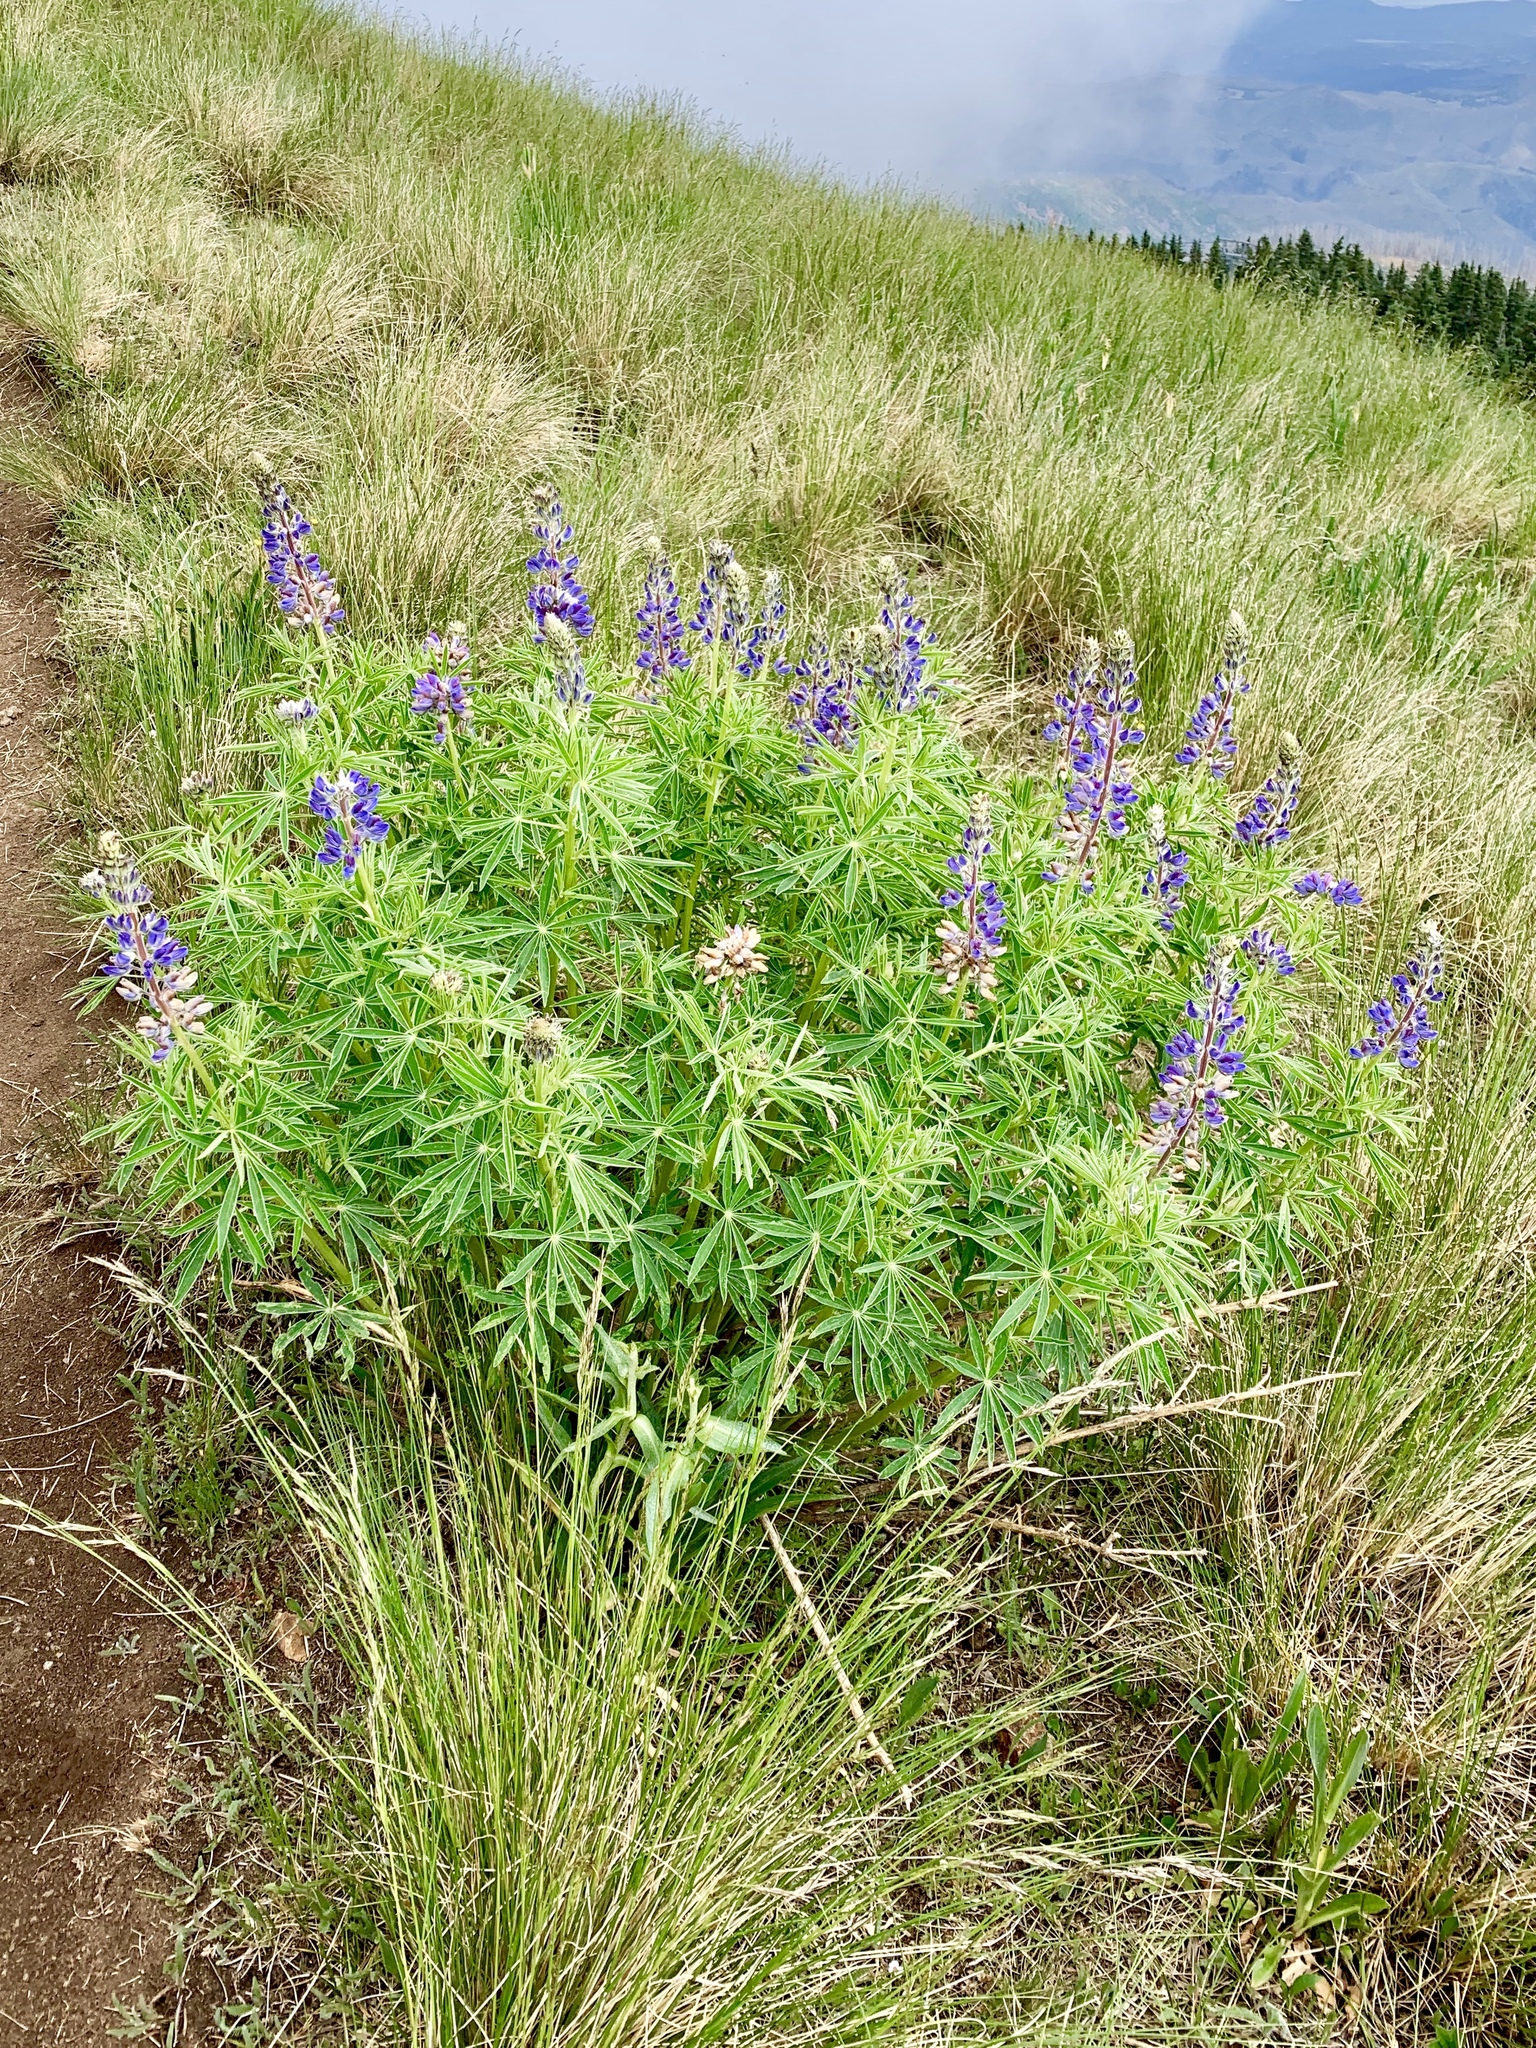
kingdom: Plantae
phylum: Tracheophyta
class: Magnoliopsida
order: Fabales
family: Fabaceae
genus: Lupinus
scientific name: Lupinus sierrae-blancae
